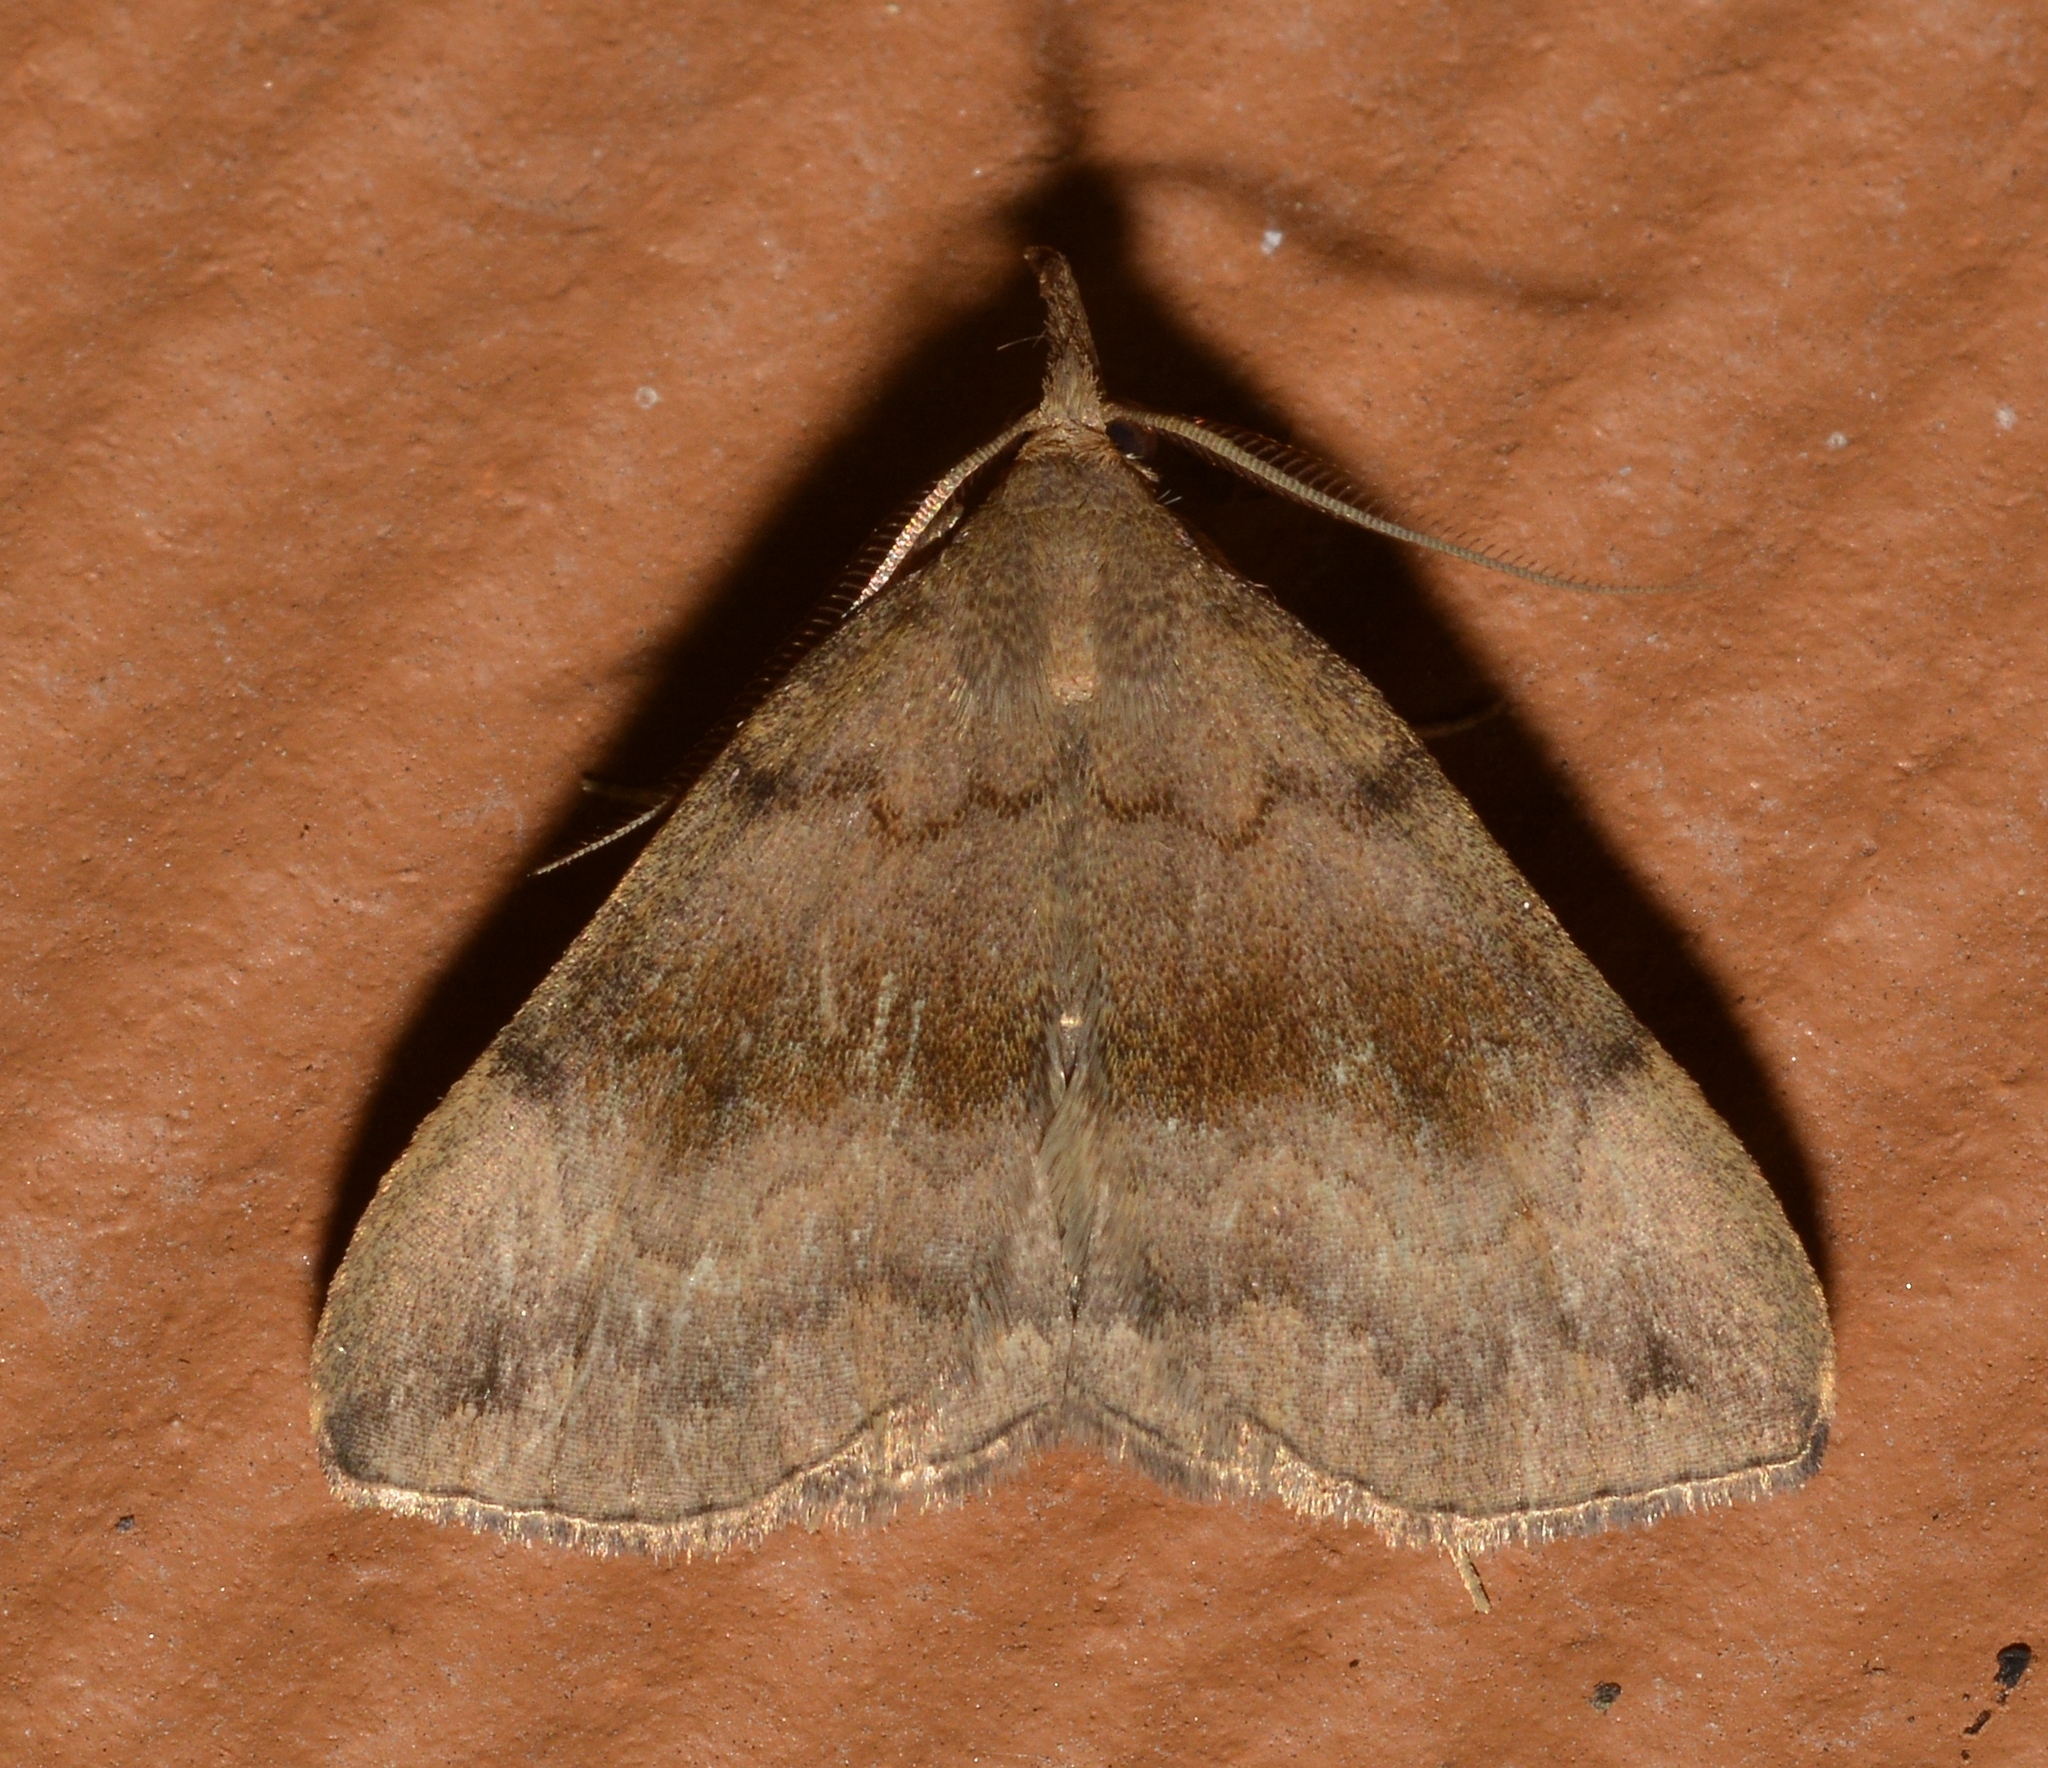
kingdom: Animalia
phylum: Arthropoda
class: Insecta
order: Lepidoptera
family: Erebidae
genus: Phalaenostola
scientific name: Phalaenostola eumelusalis
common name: Dark phalaenostola moth
